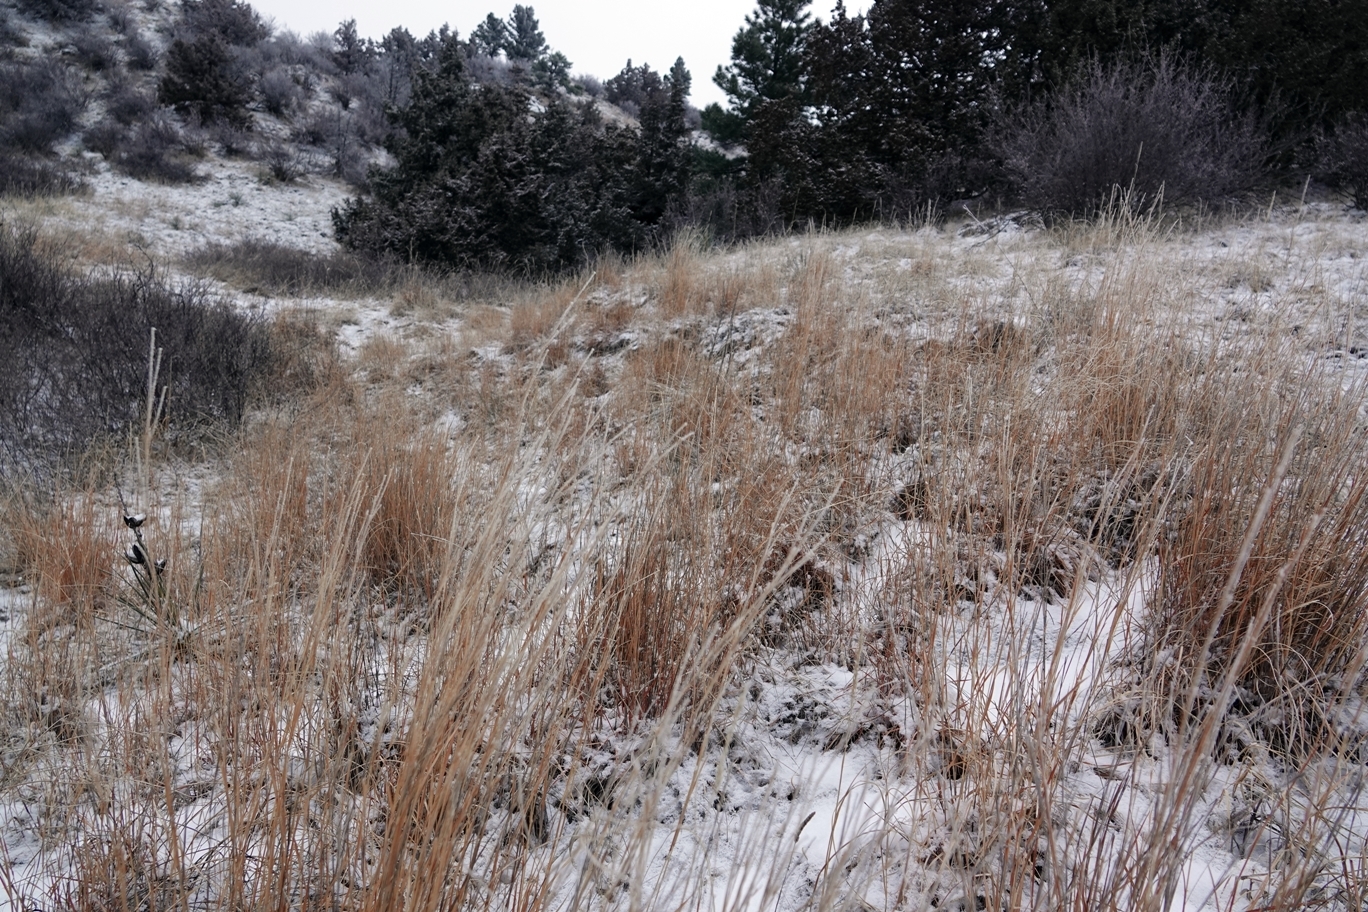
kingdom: Plantae
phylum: Tracheophyta
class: Liliopsida
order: Poales
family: Poaceae
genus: Schizachyrium
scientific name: Schizachyrium scoparium
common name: Little bluestem
